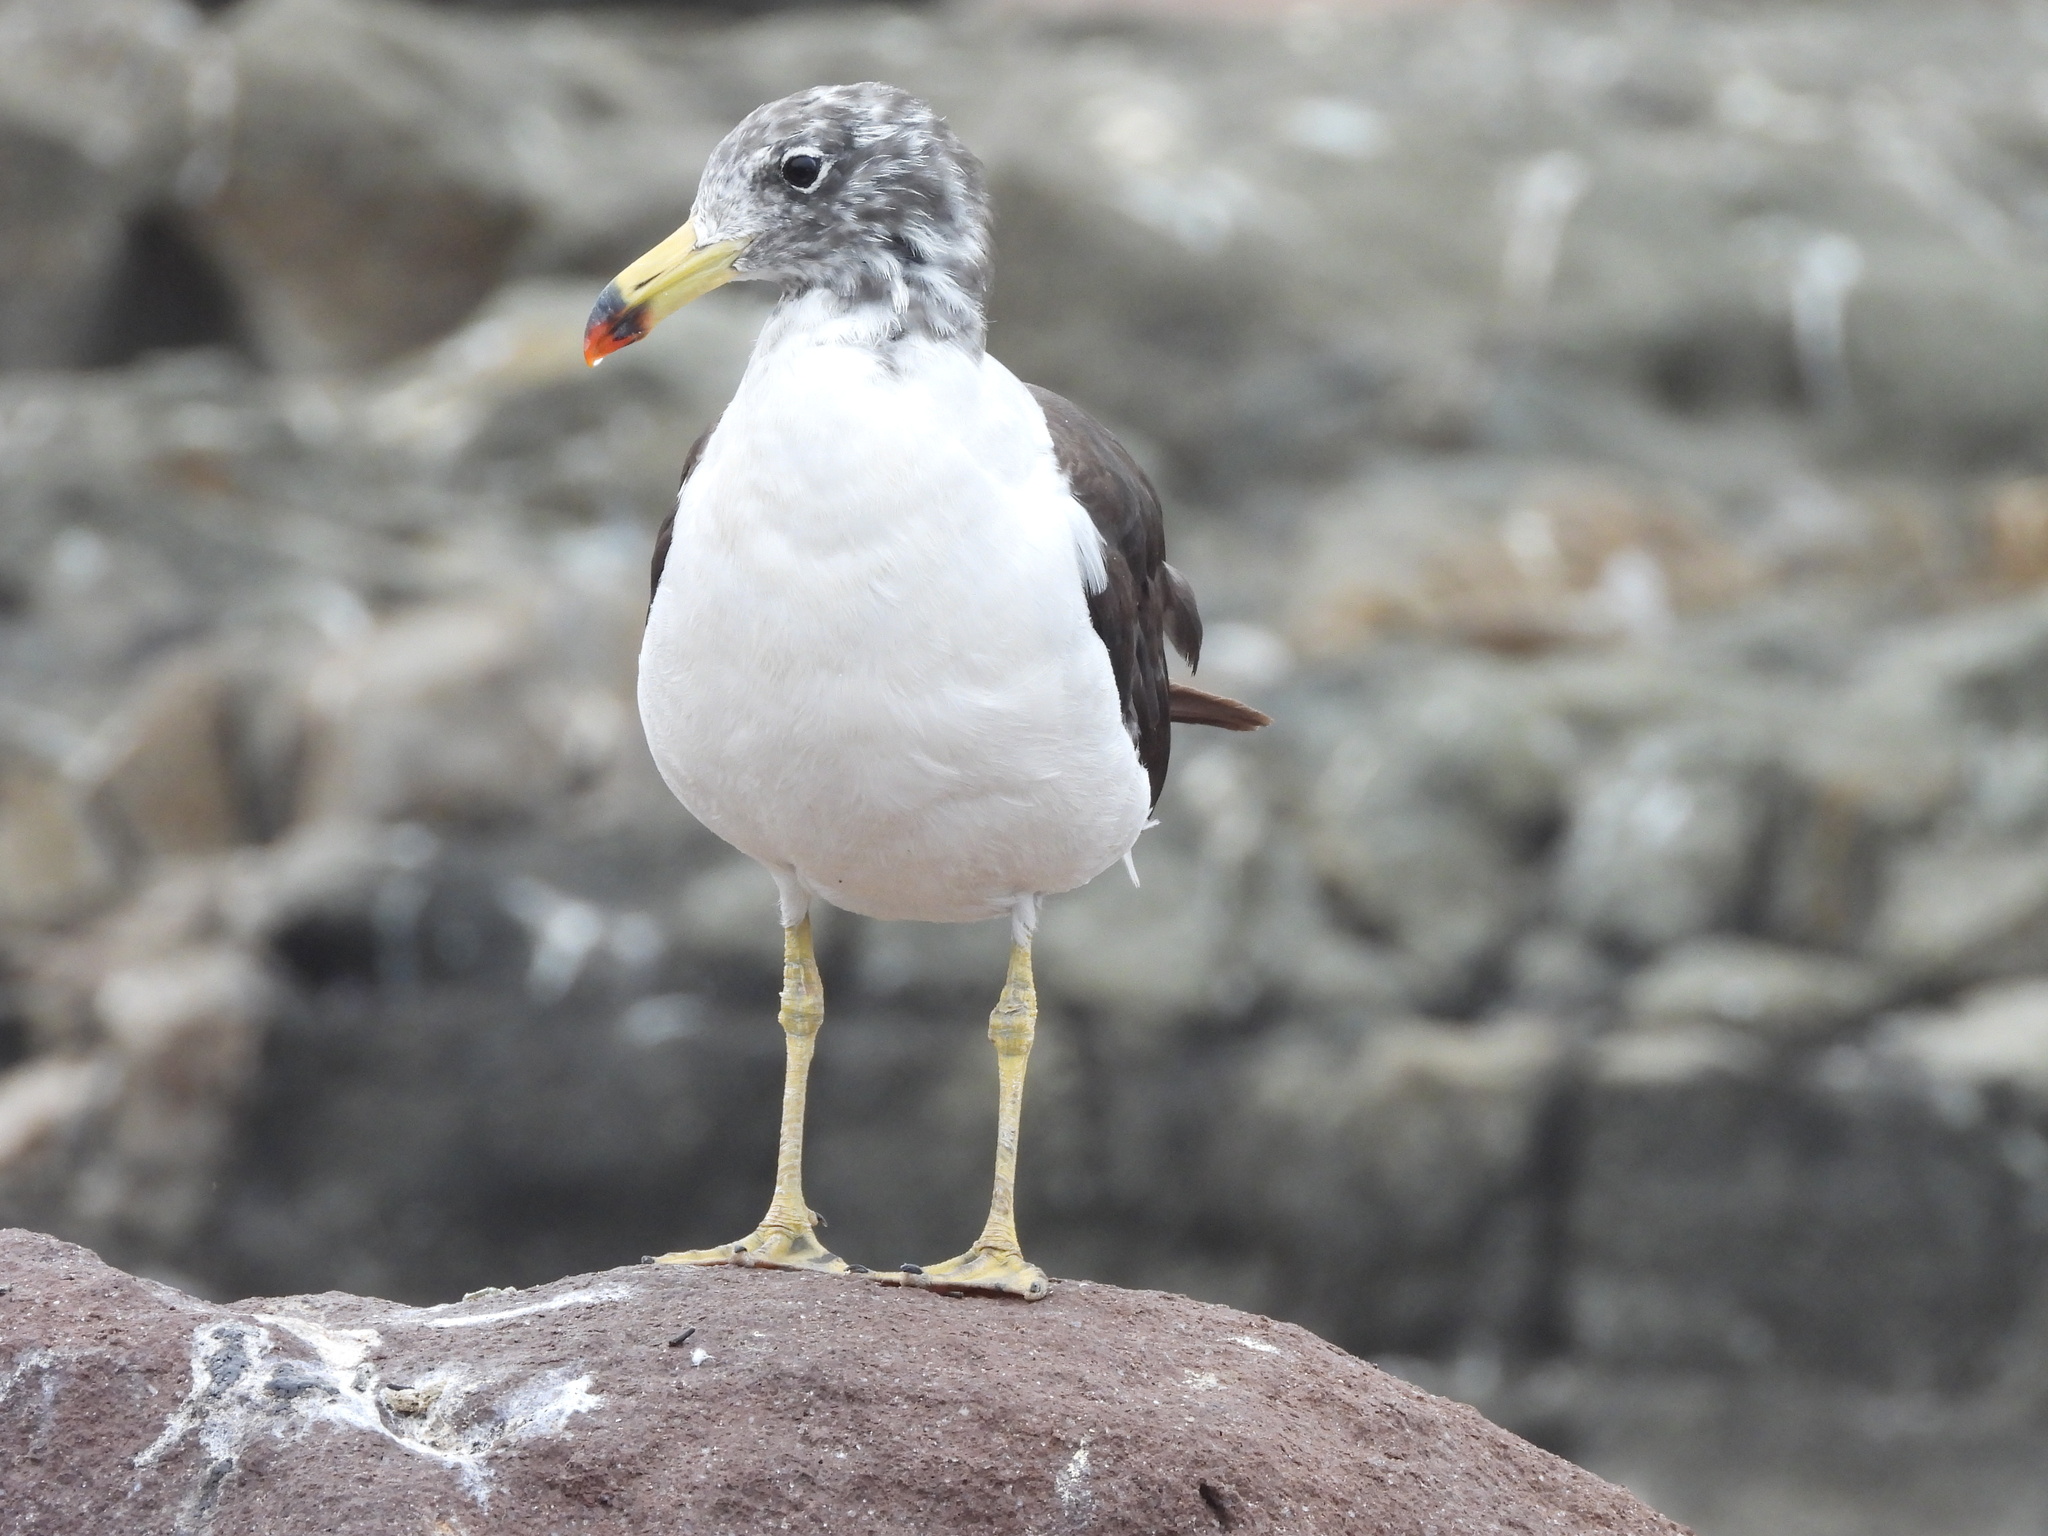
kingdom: Animalia
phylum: Chordata
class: Aves
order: Charadriiformes
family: Laridae
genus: Larus
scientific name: Larus belcheri
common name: Belcher's gull
